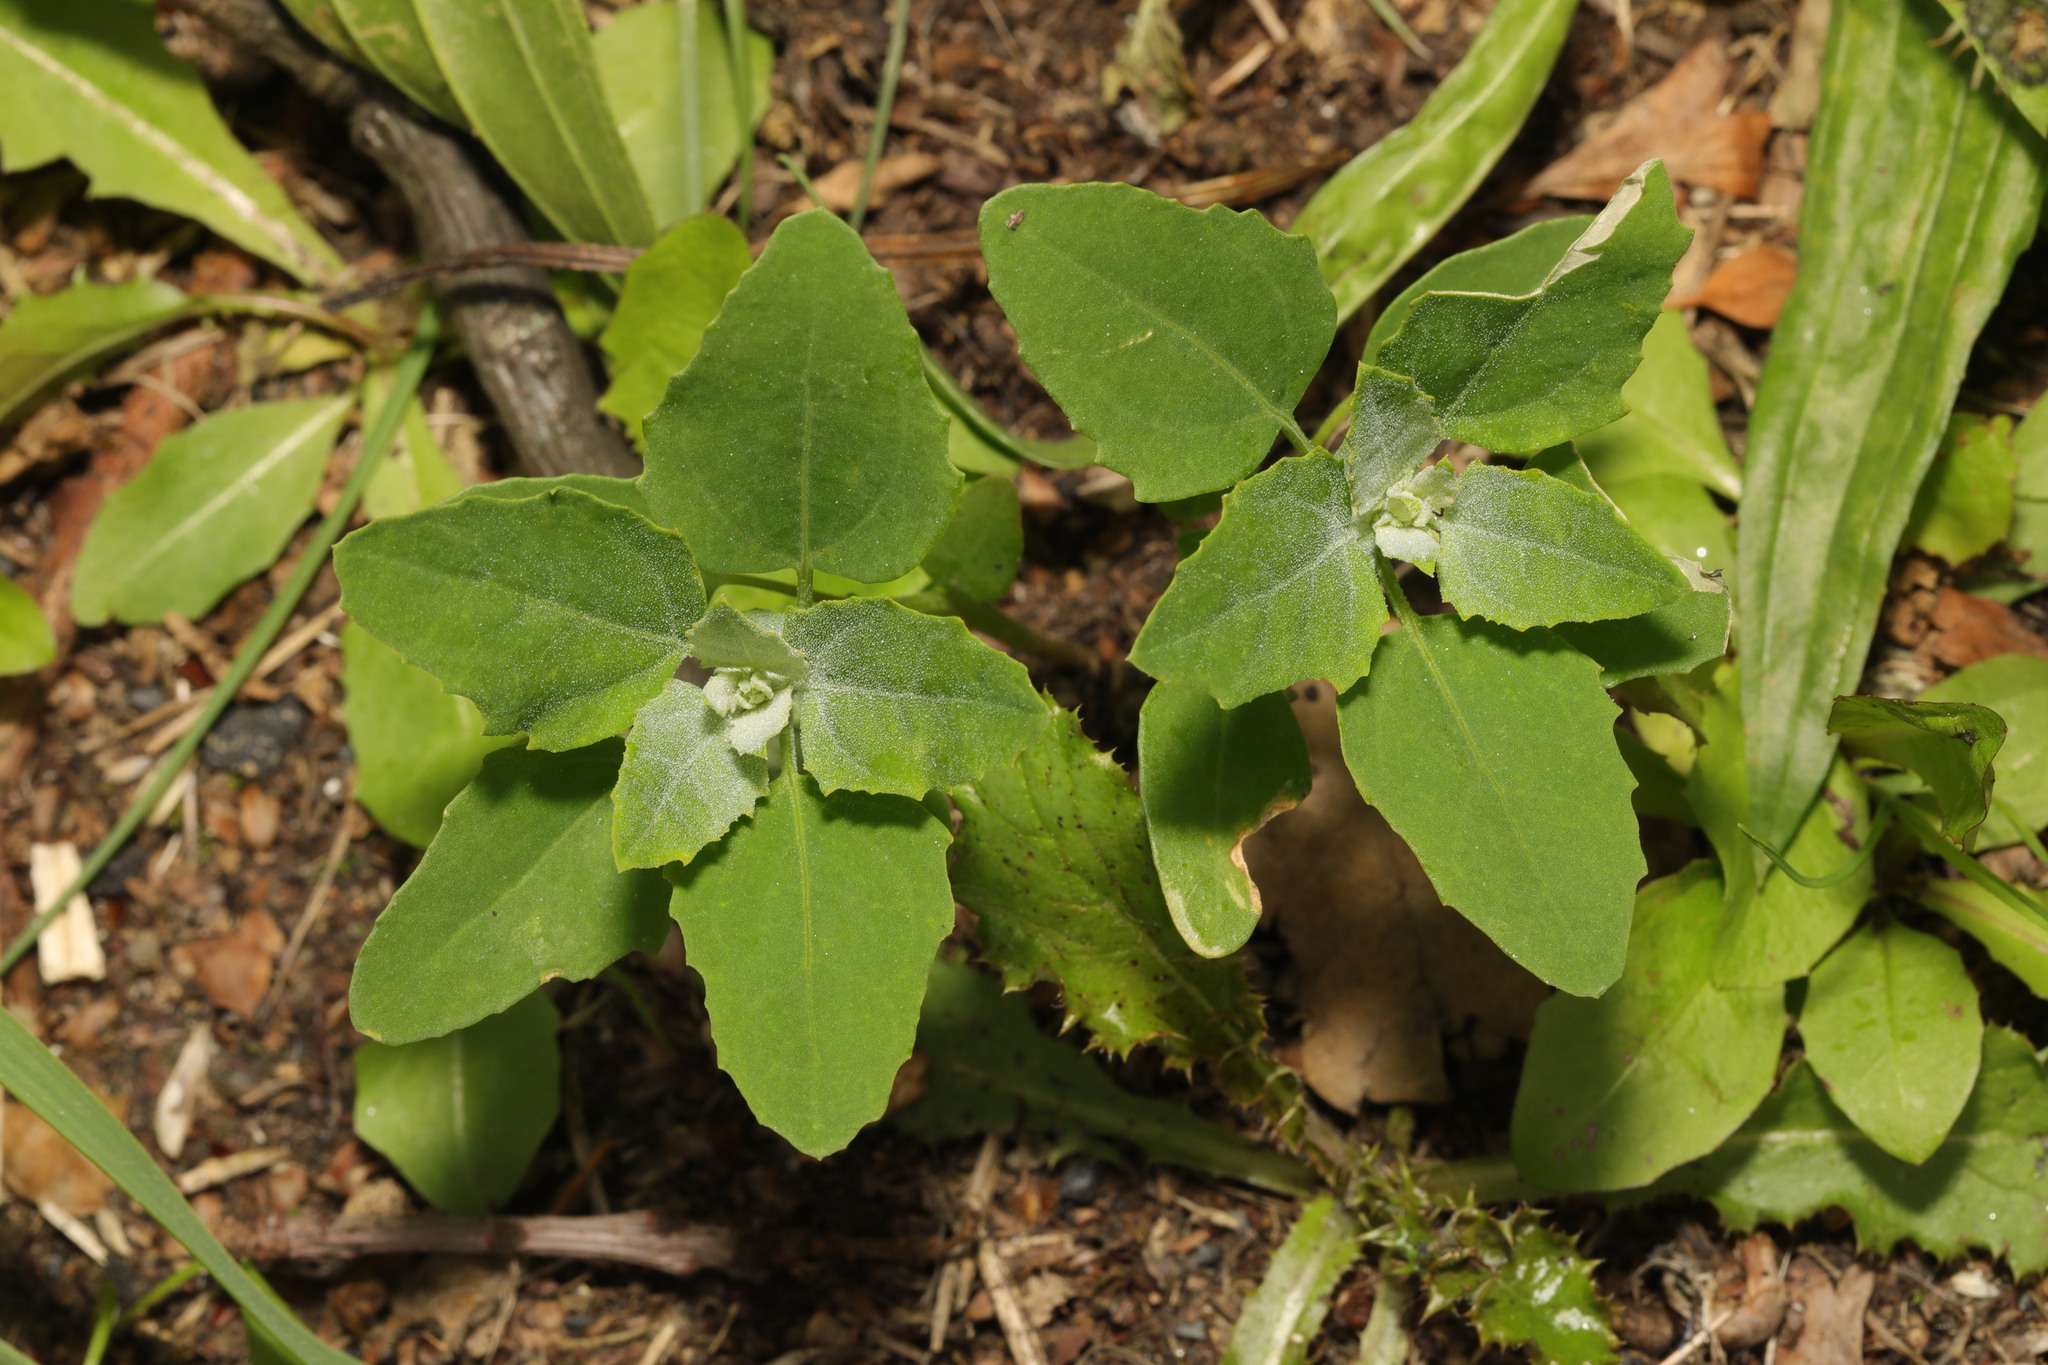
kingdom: Plantae
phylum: Tracheophyta
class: Magnoliopsida
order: Caryophyllales
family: Amaranthaceae
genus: Chenopodium
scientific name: Chenopodium album
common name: Fat-hen
